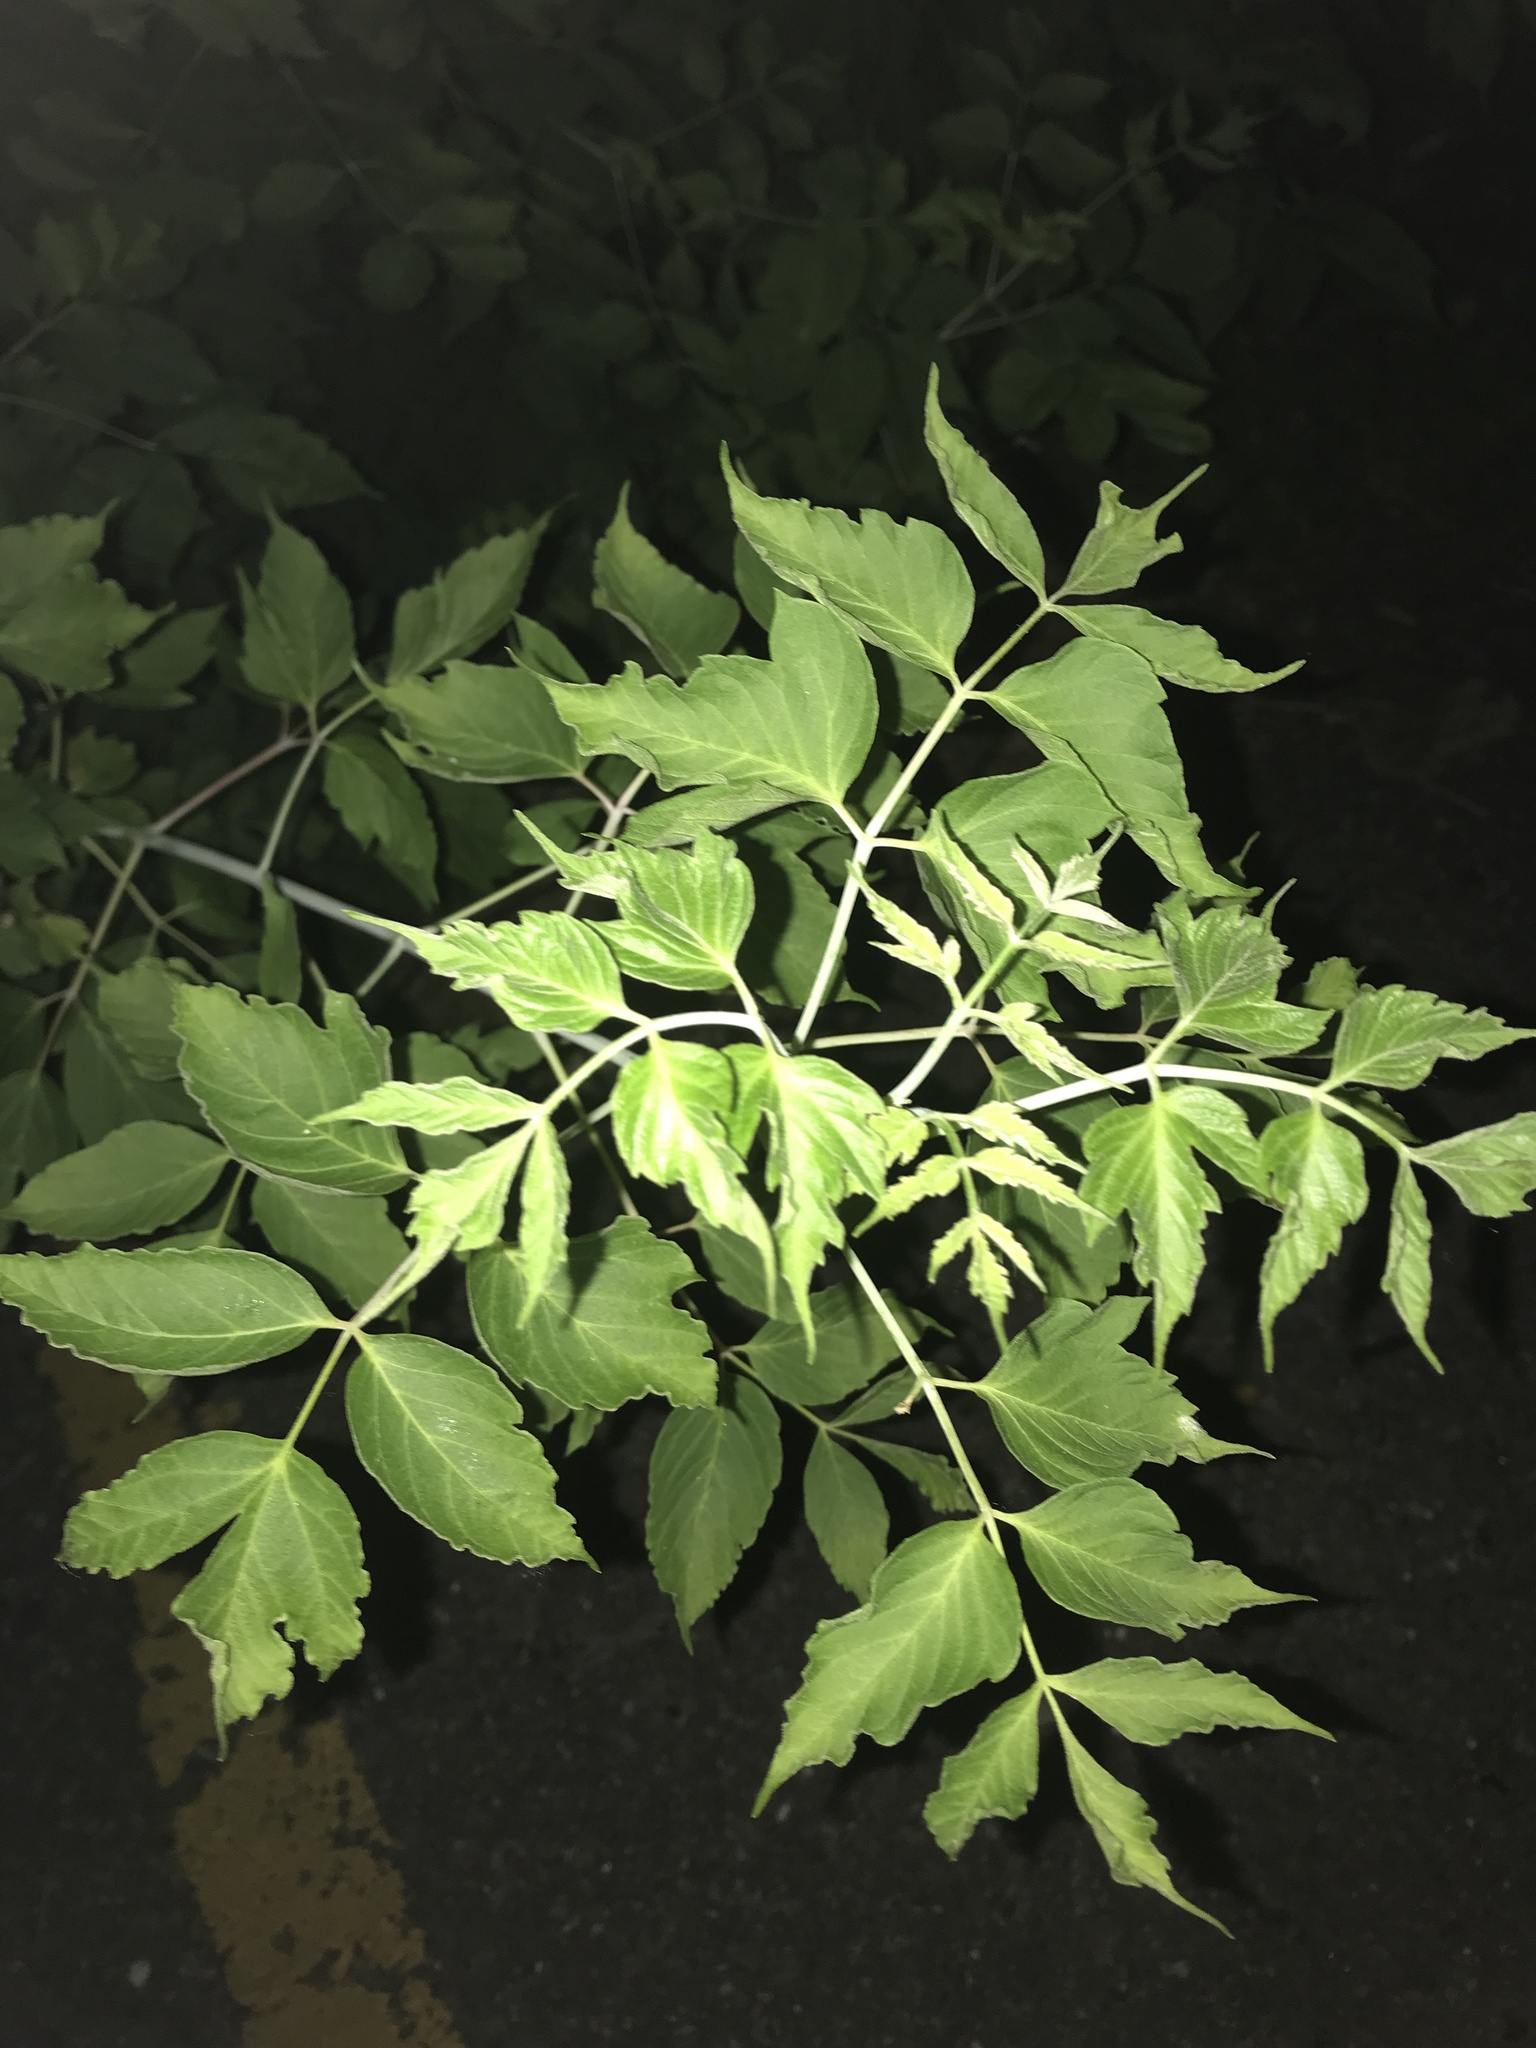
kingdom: Plantae
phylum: Tracheophyta
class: Magnoliopsida
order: Sapindales
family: Sapindaceae
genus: Acer
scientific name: Acer negundo
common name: Ashleaf maple
